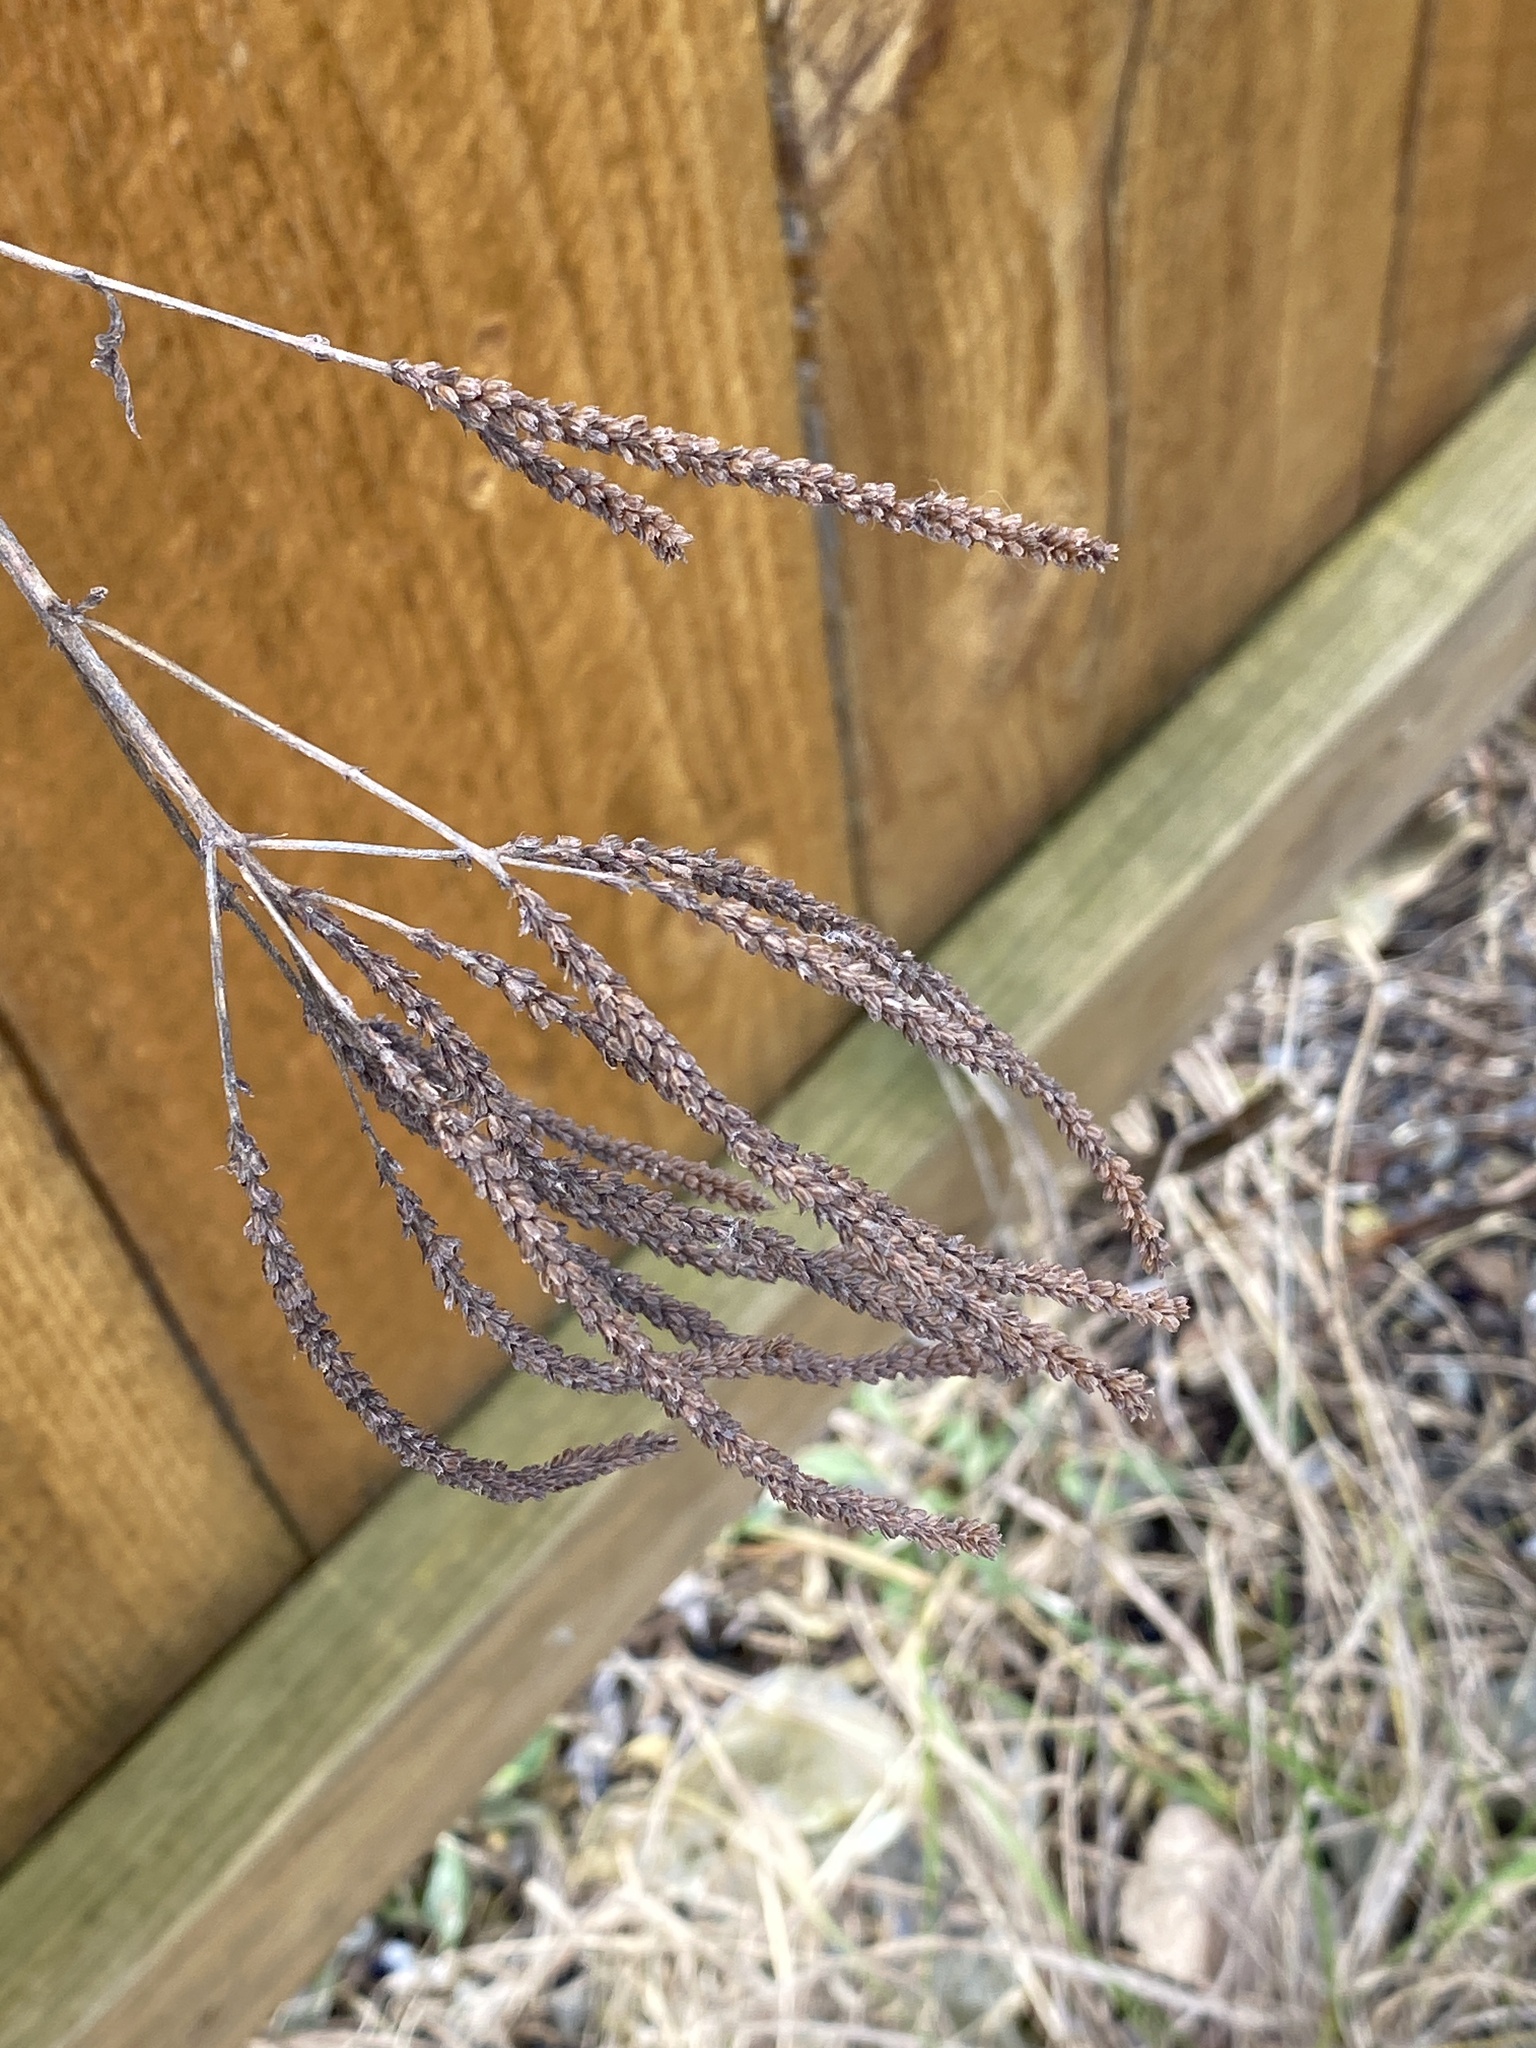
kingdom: Plantae
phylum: Tracheophyta
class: Magnoliopsida
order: Lamiales
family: Verbenaceae
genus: Verbena
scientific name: Verbena hastata
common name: American blue vervain
